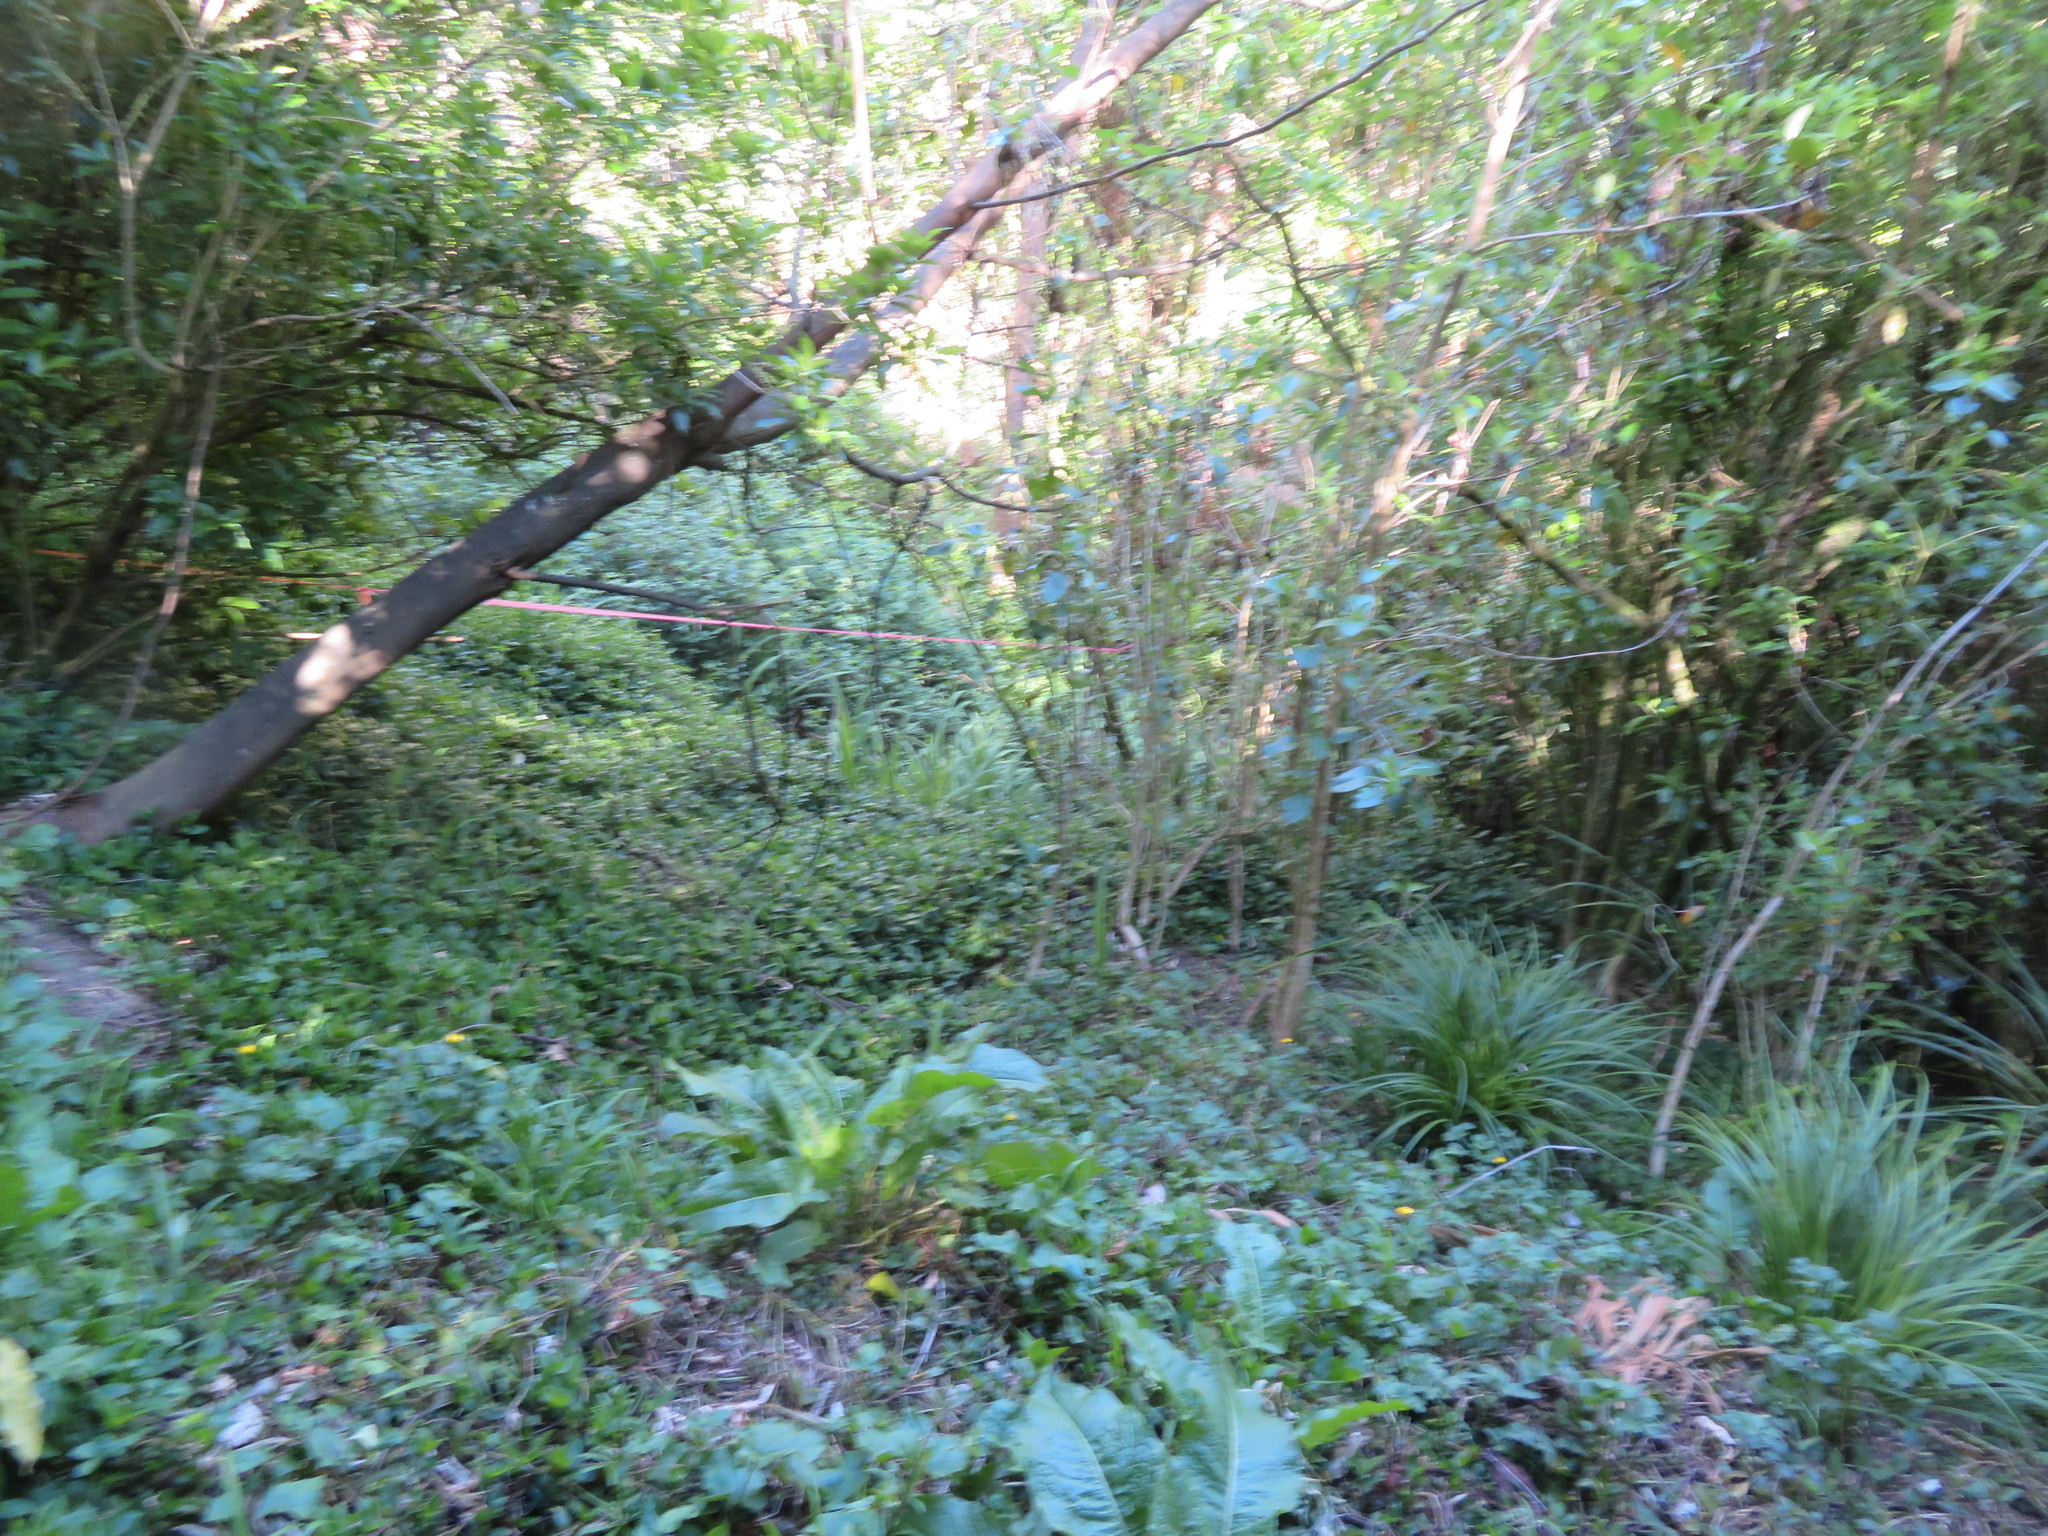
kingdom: Plantae
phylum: Tracheophyta
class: Magnoliopsida
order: Caryophyllales
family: Polygonaceae
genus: Rumex
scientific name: Rumex obtusifolius
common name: Bitter dock
